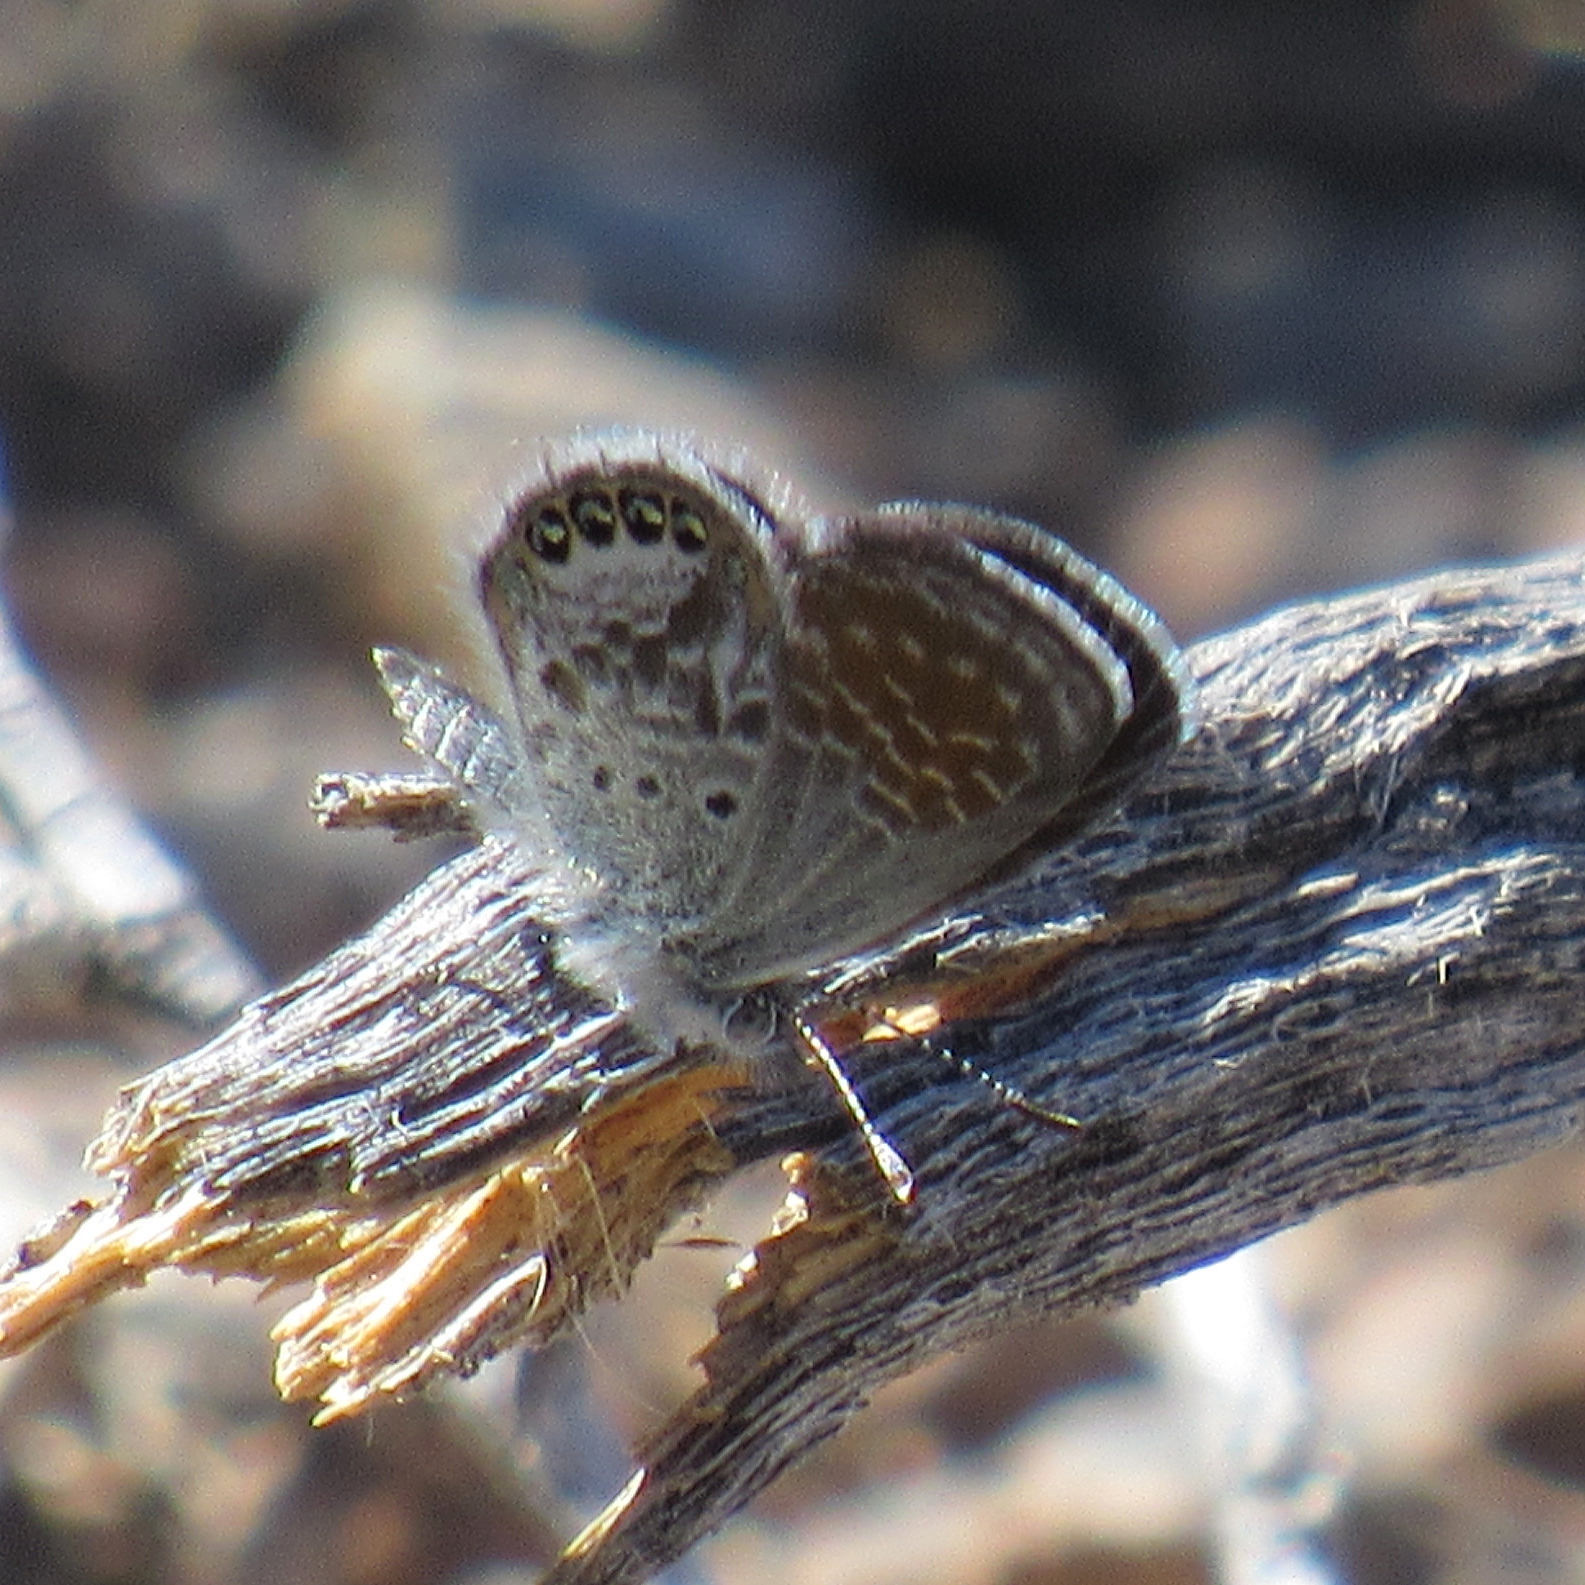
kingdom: Animalia
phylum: Arthropoda
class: Insecta
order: Lepidoptera
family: Lycaenidae
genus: Brephidium
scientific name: Brephidium exilis
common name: Pygmy blue
